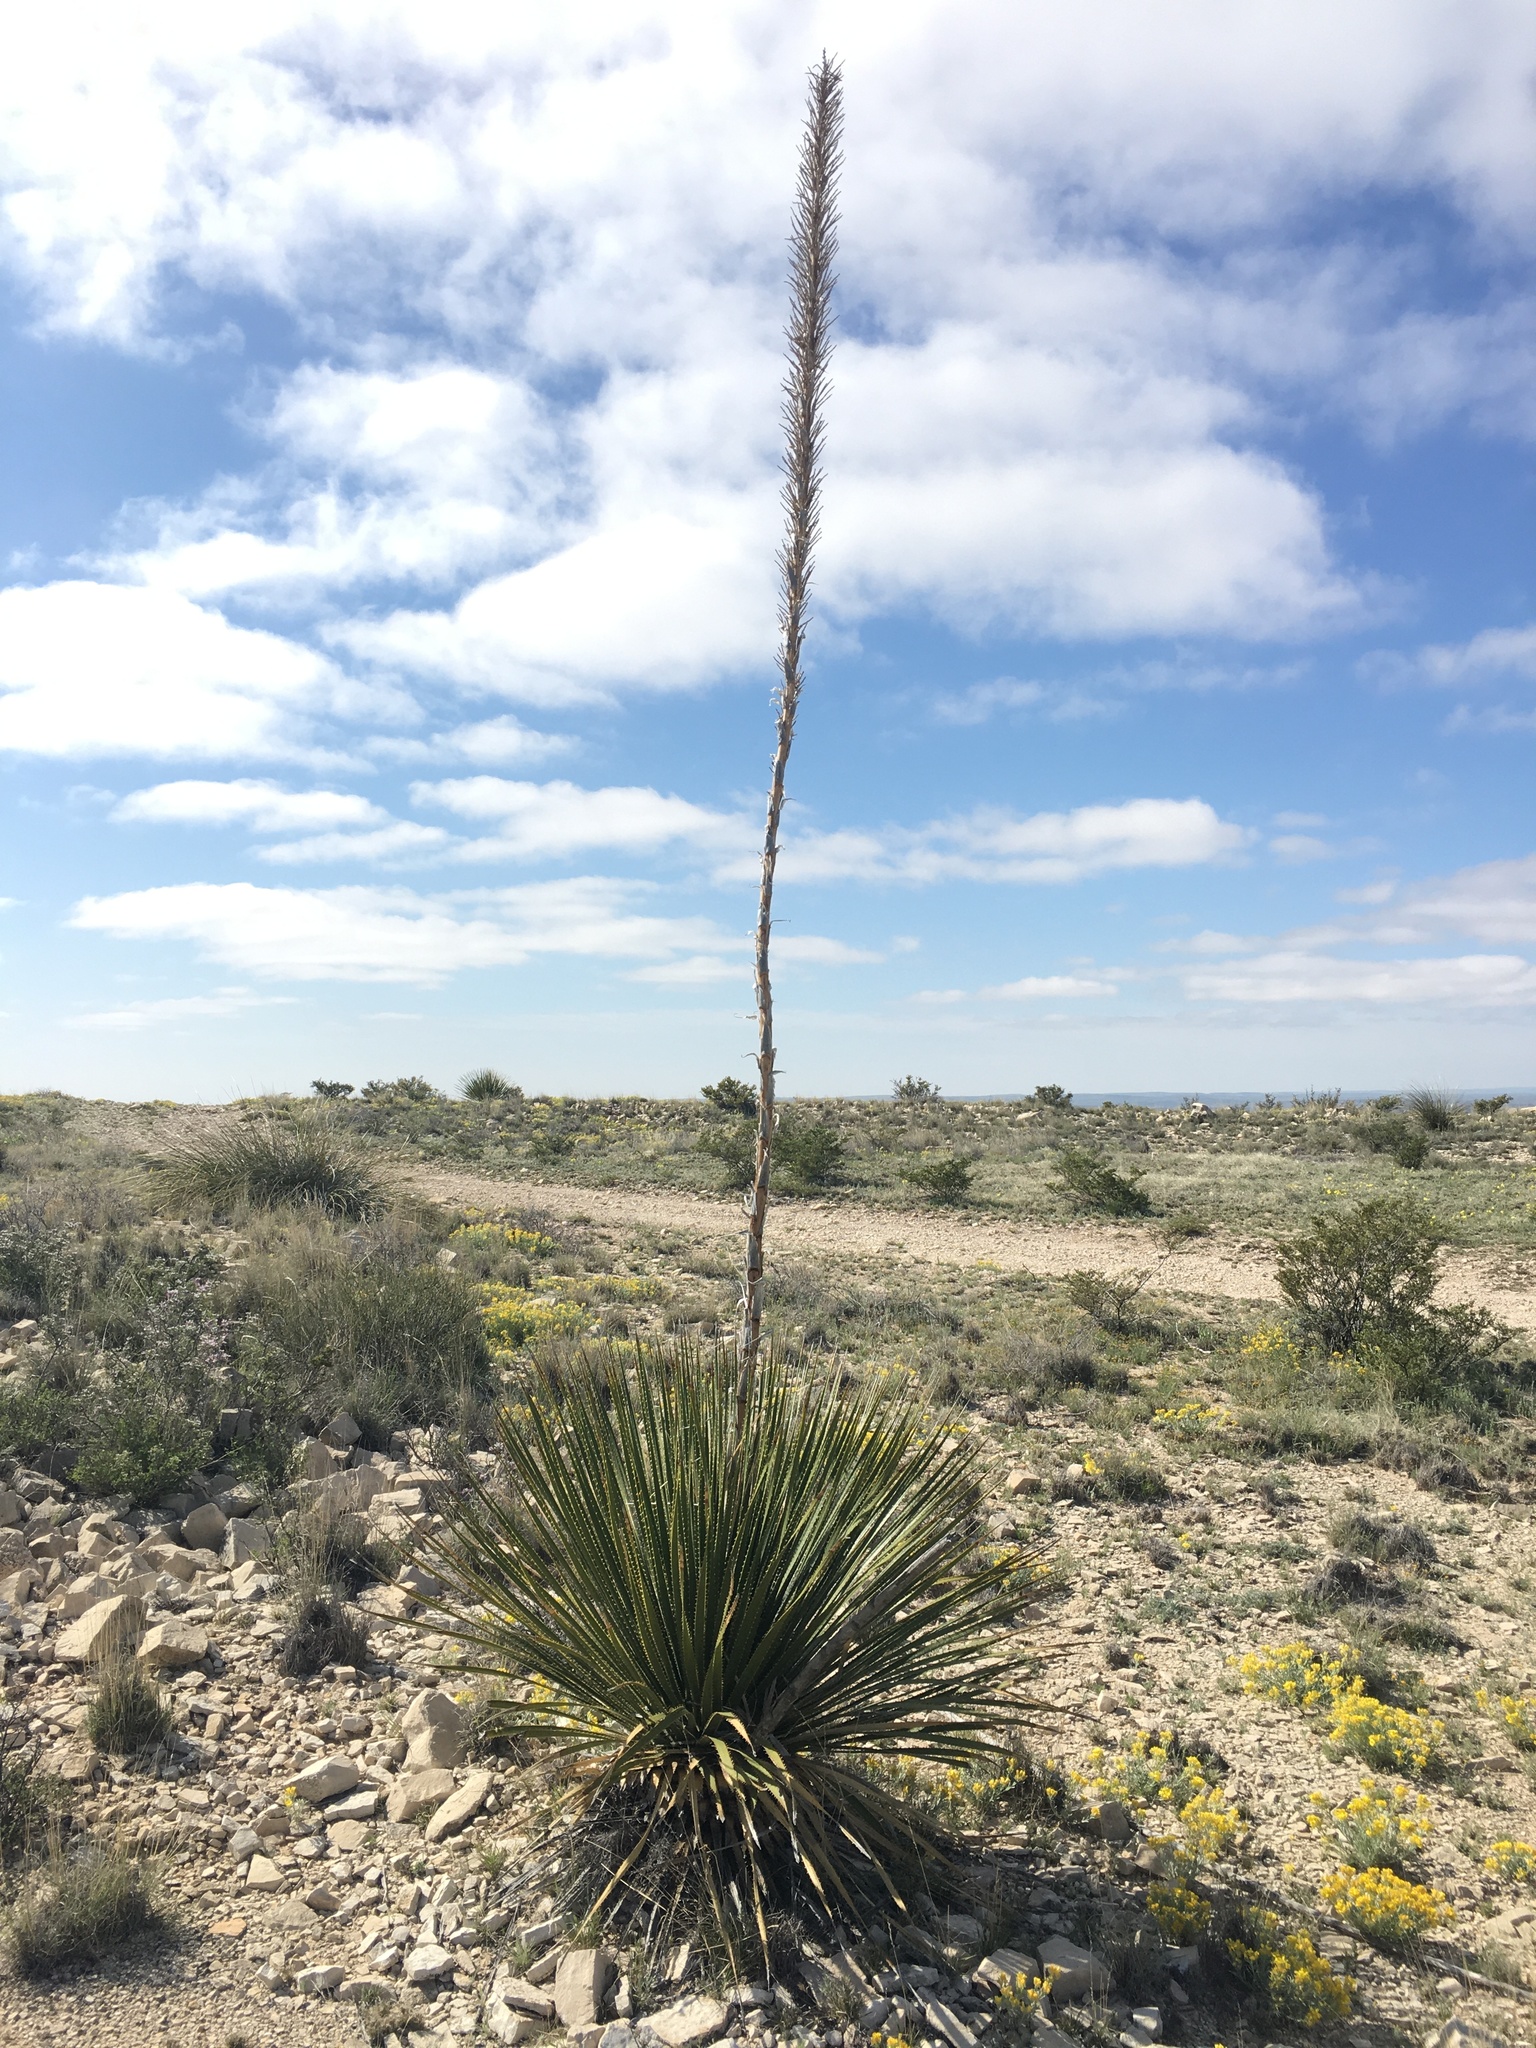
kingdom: Plantae
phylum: Tracheophyta
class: Liliopsida
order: Asparagales
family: Asparagaceae
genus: Dasylirion
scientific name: Dasylirion leiophyllum
